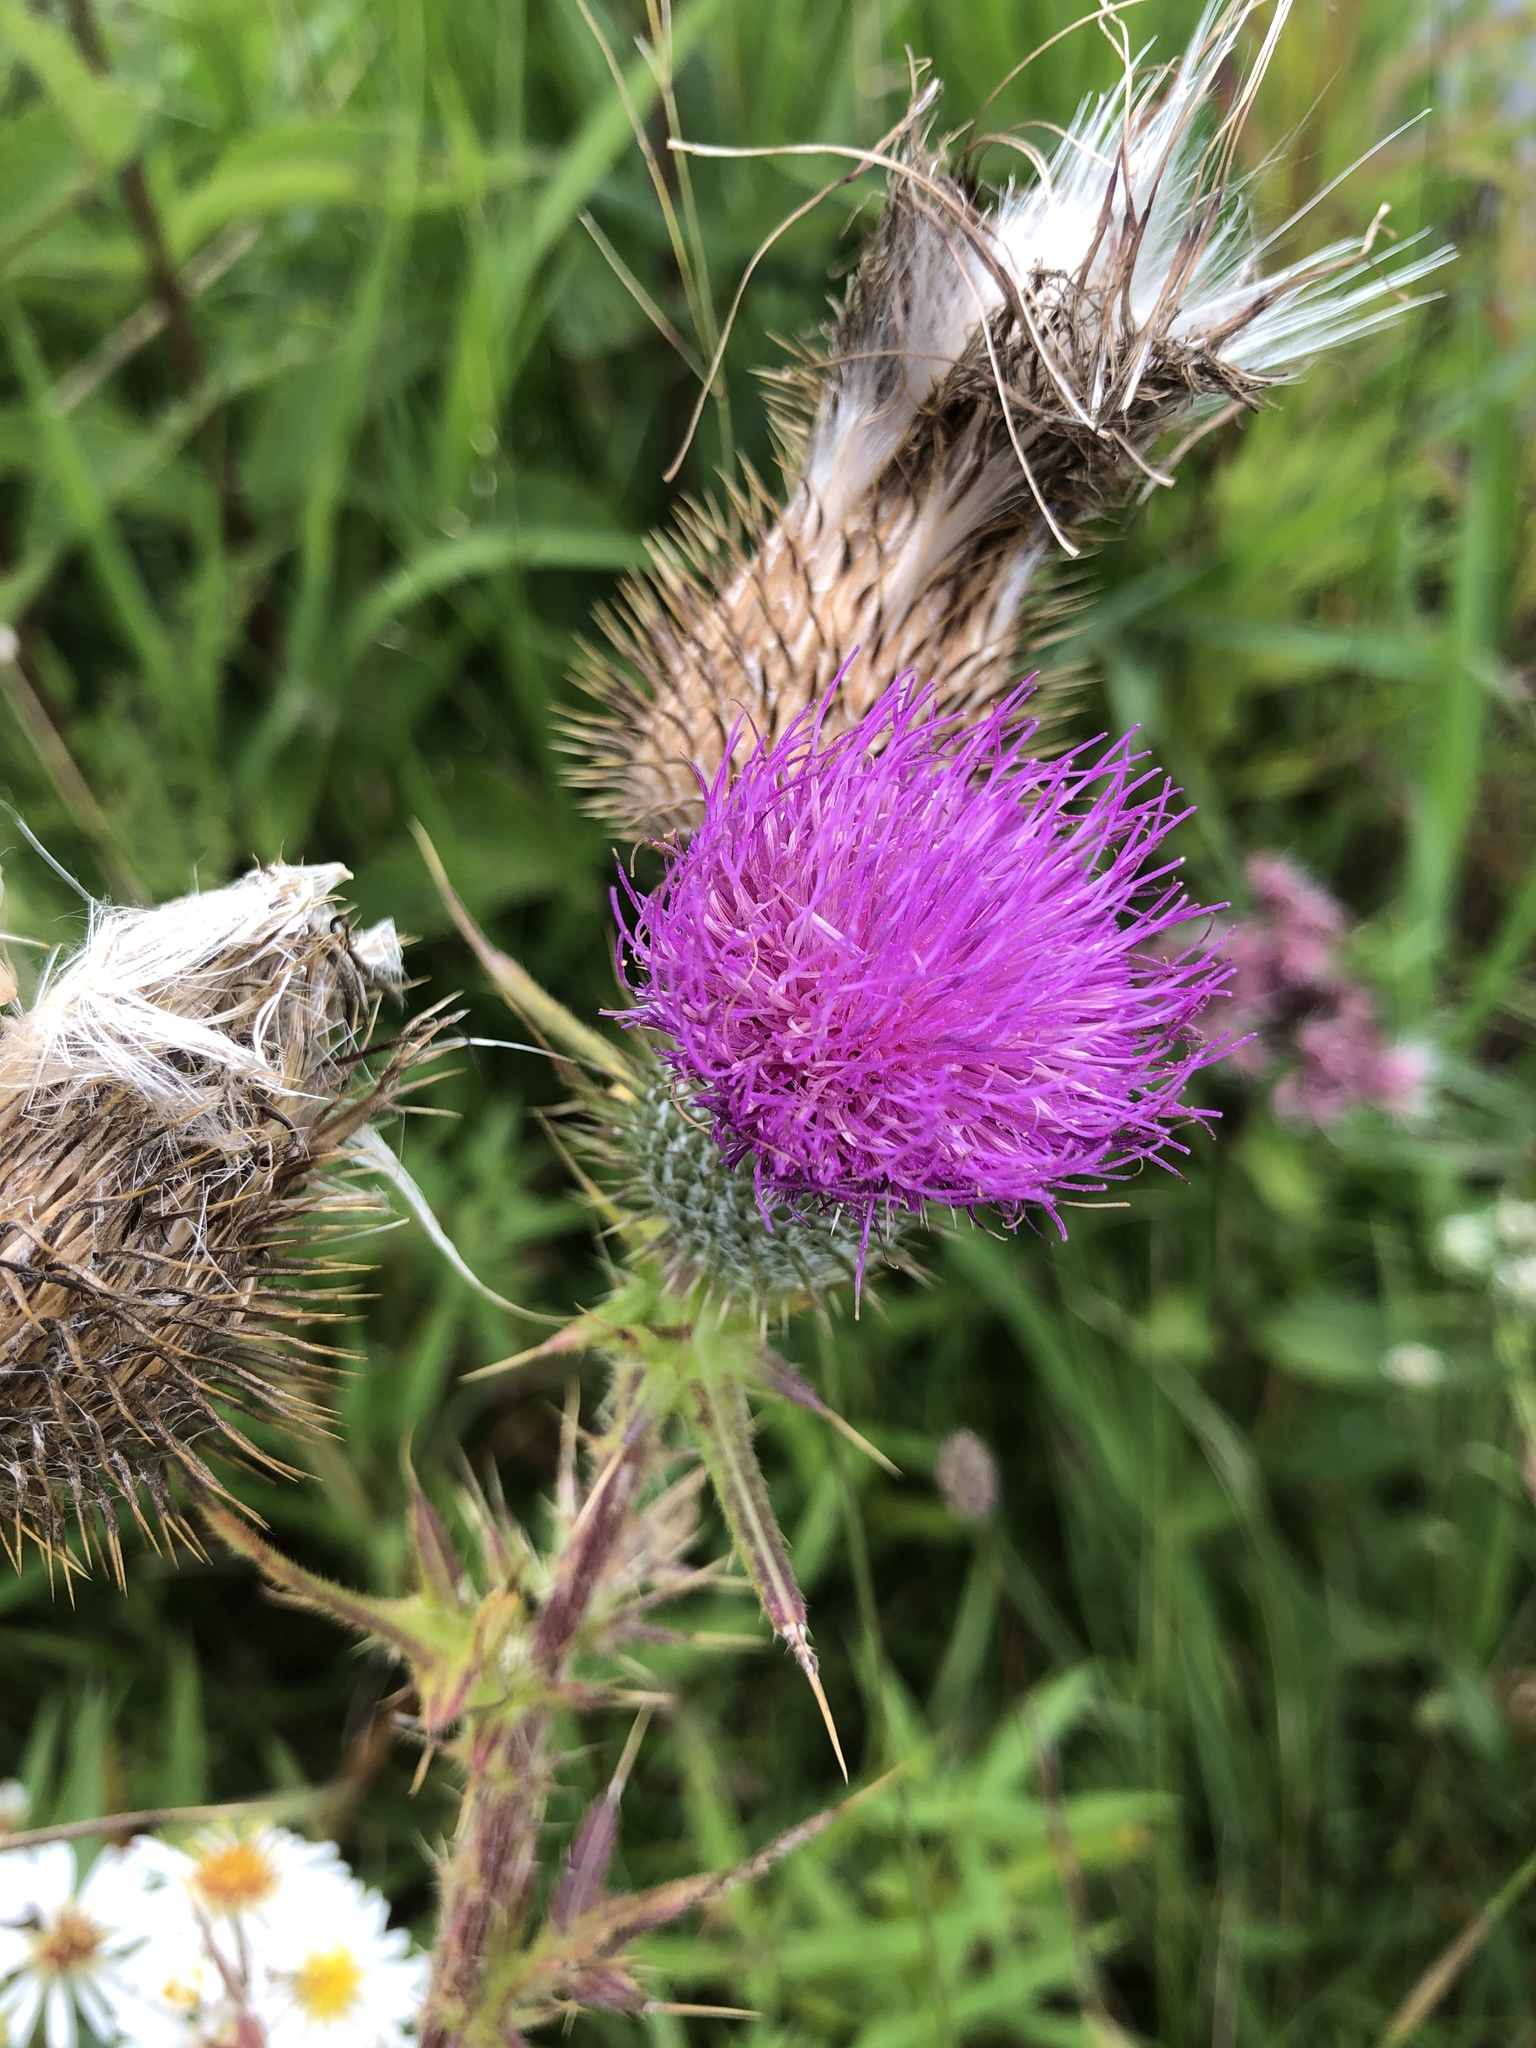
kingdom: Plantae
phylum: Tracheophyta
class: Magnoliopsida
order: Asterales
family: Asteraceae
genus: Cirsium
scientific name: Cirsium vulgare
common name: Bull thistle
